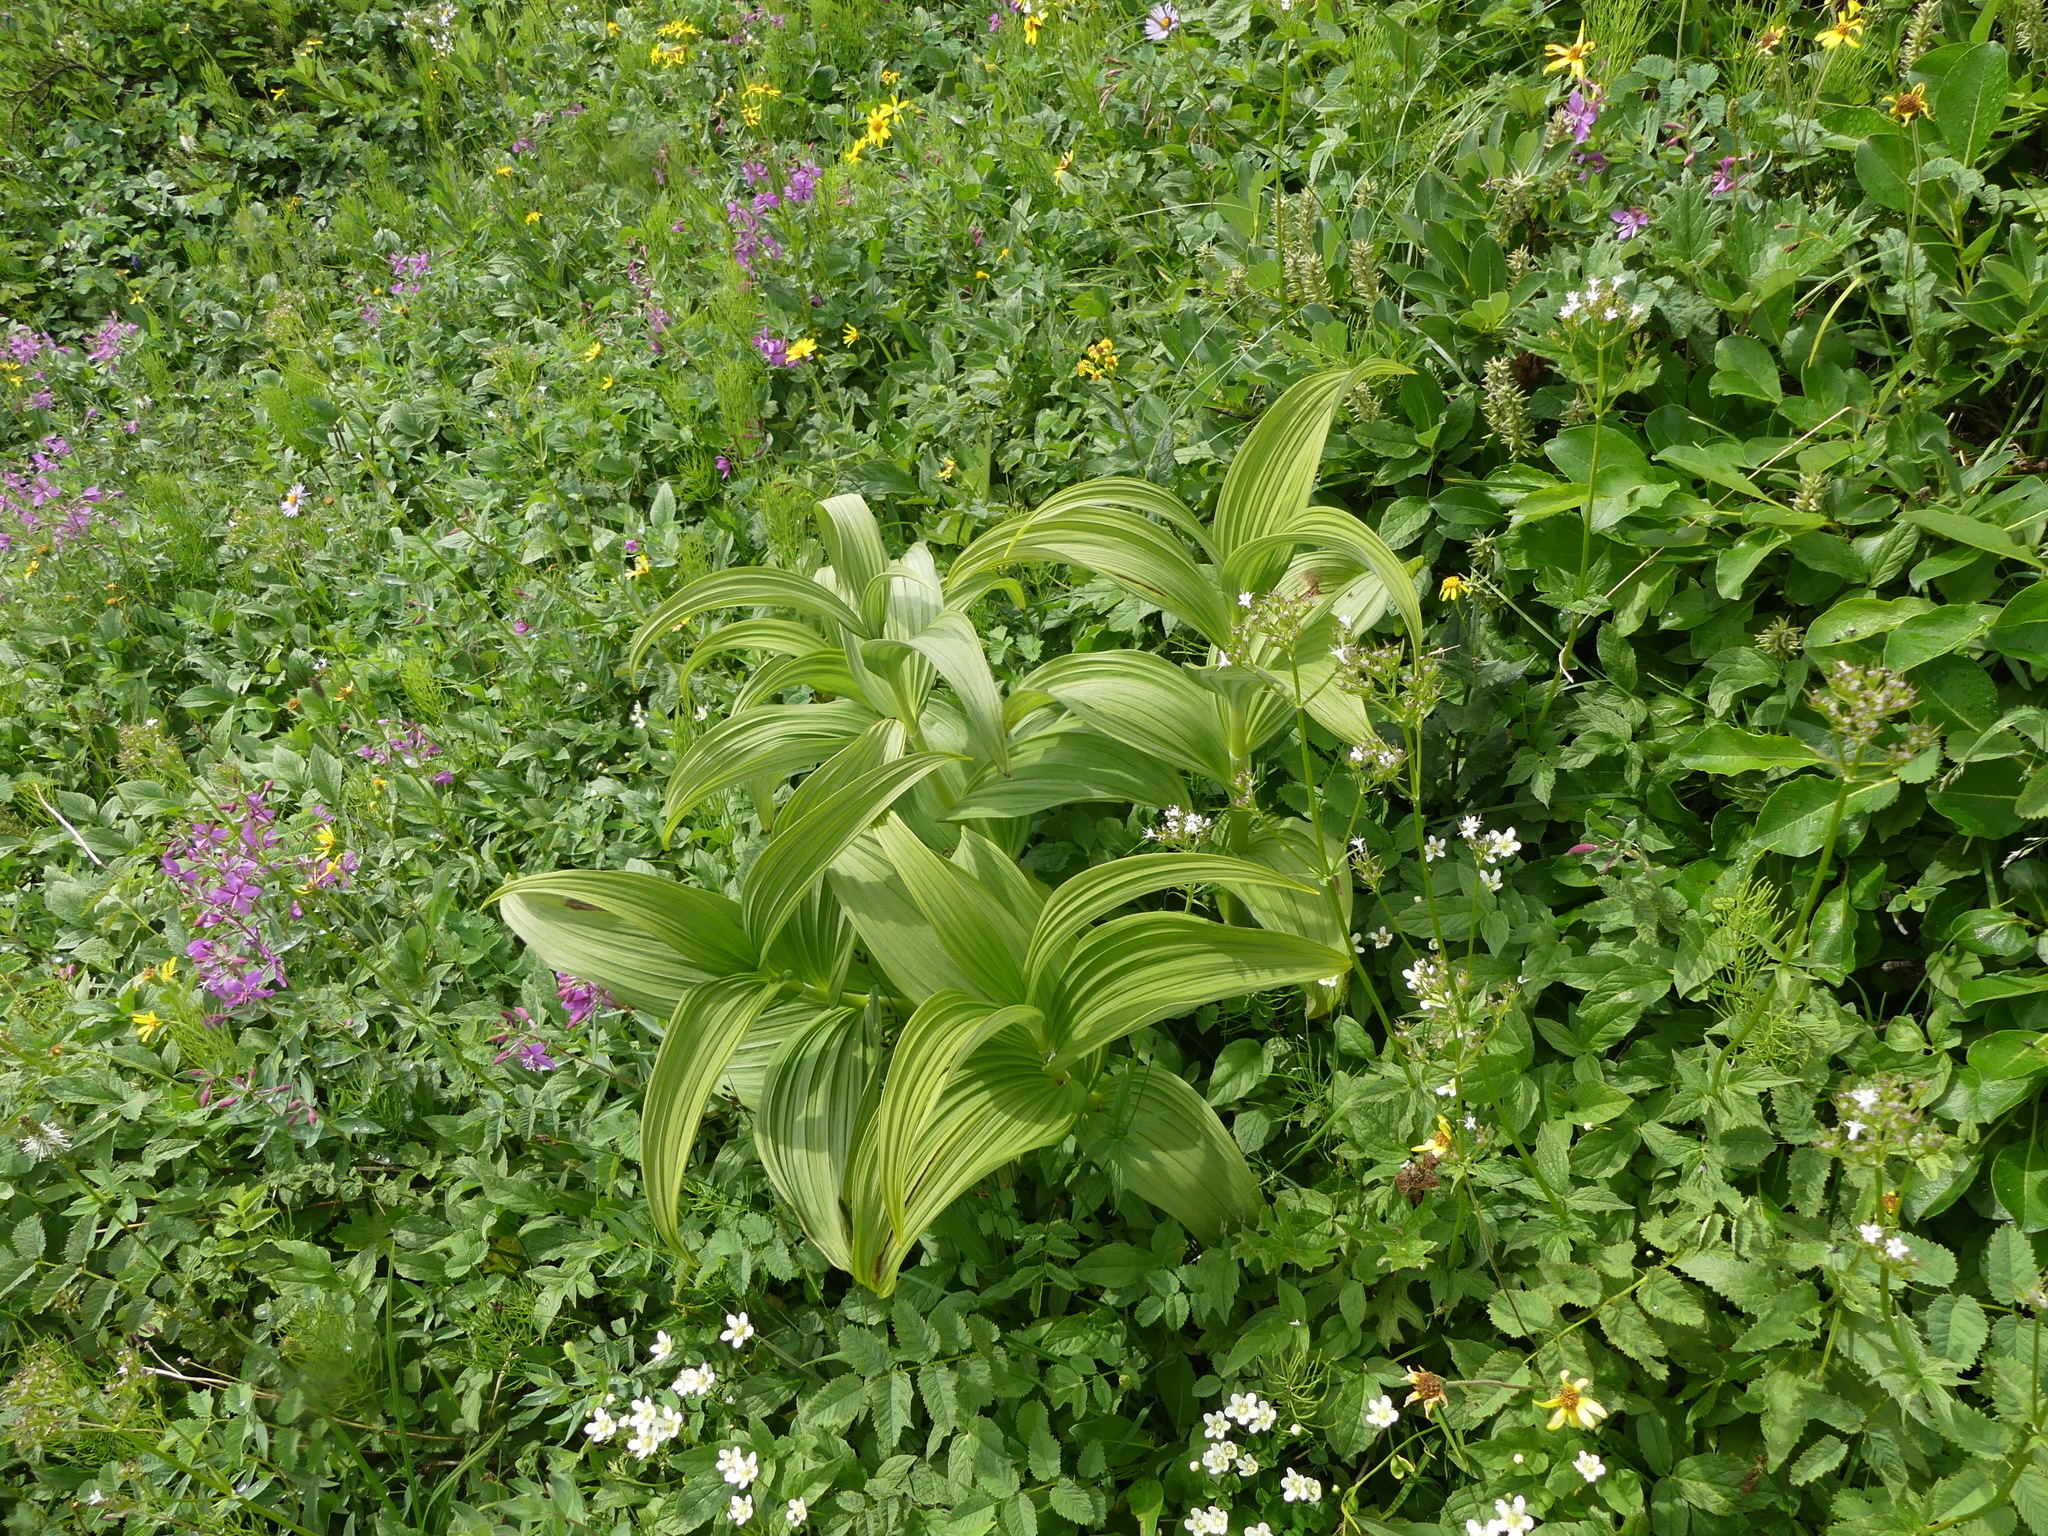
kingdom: Plantae
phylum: Tracheophyta
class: Liliopsida
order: Liliales
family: Melanthiaceae
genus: Veratrum
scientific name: Veratrum viride
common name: American false hellebore
